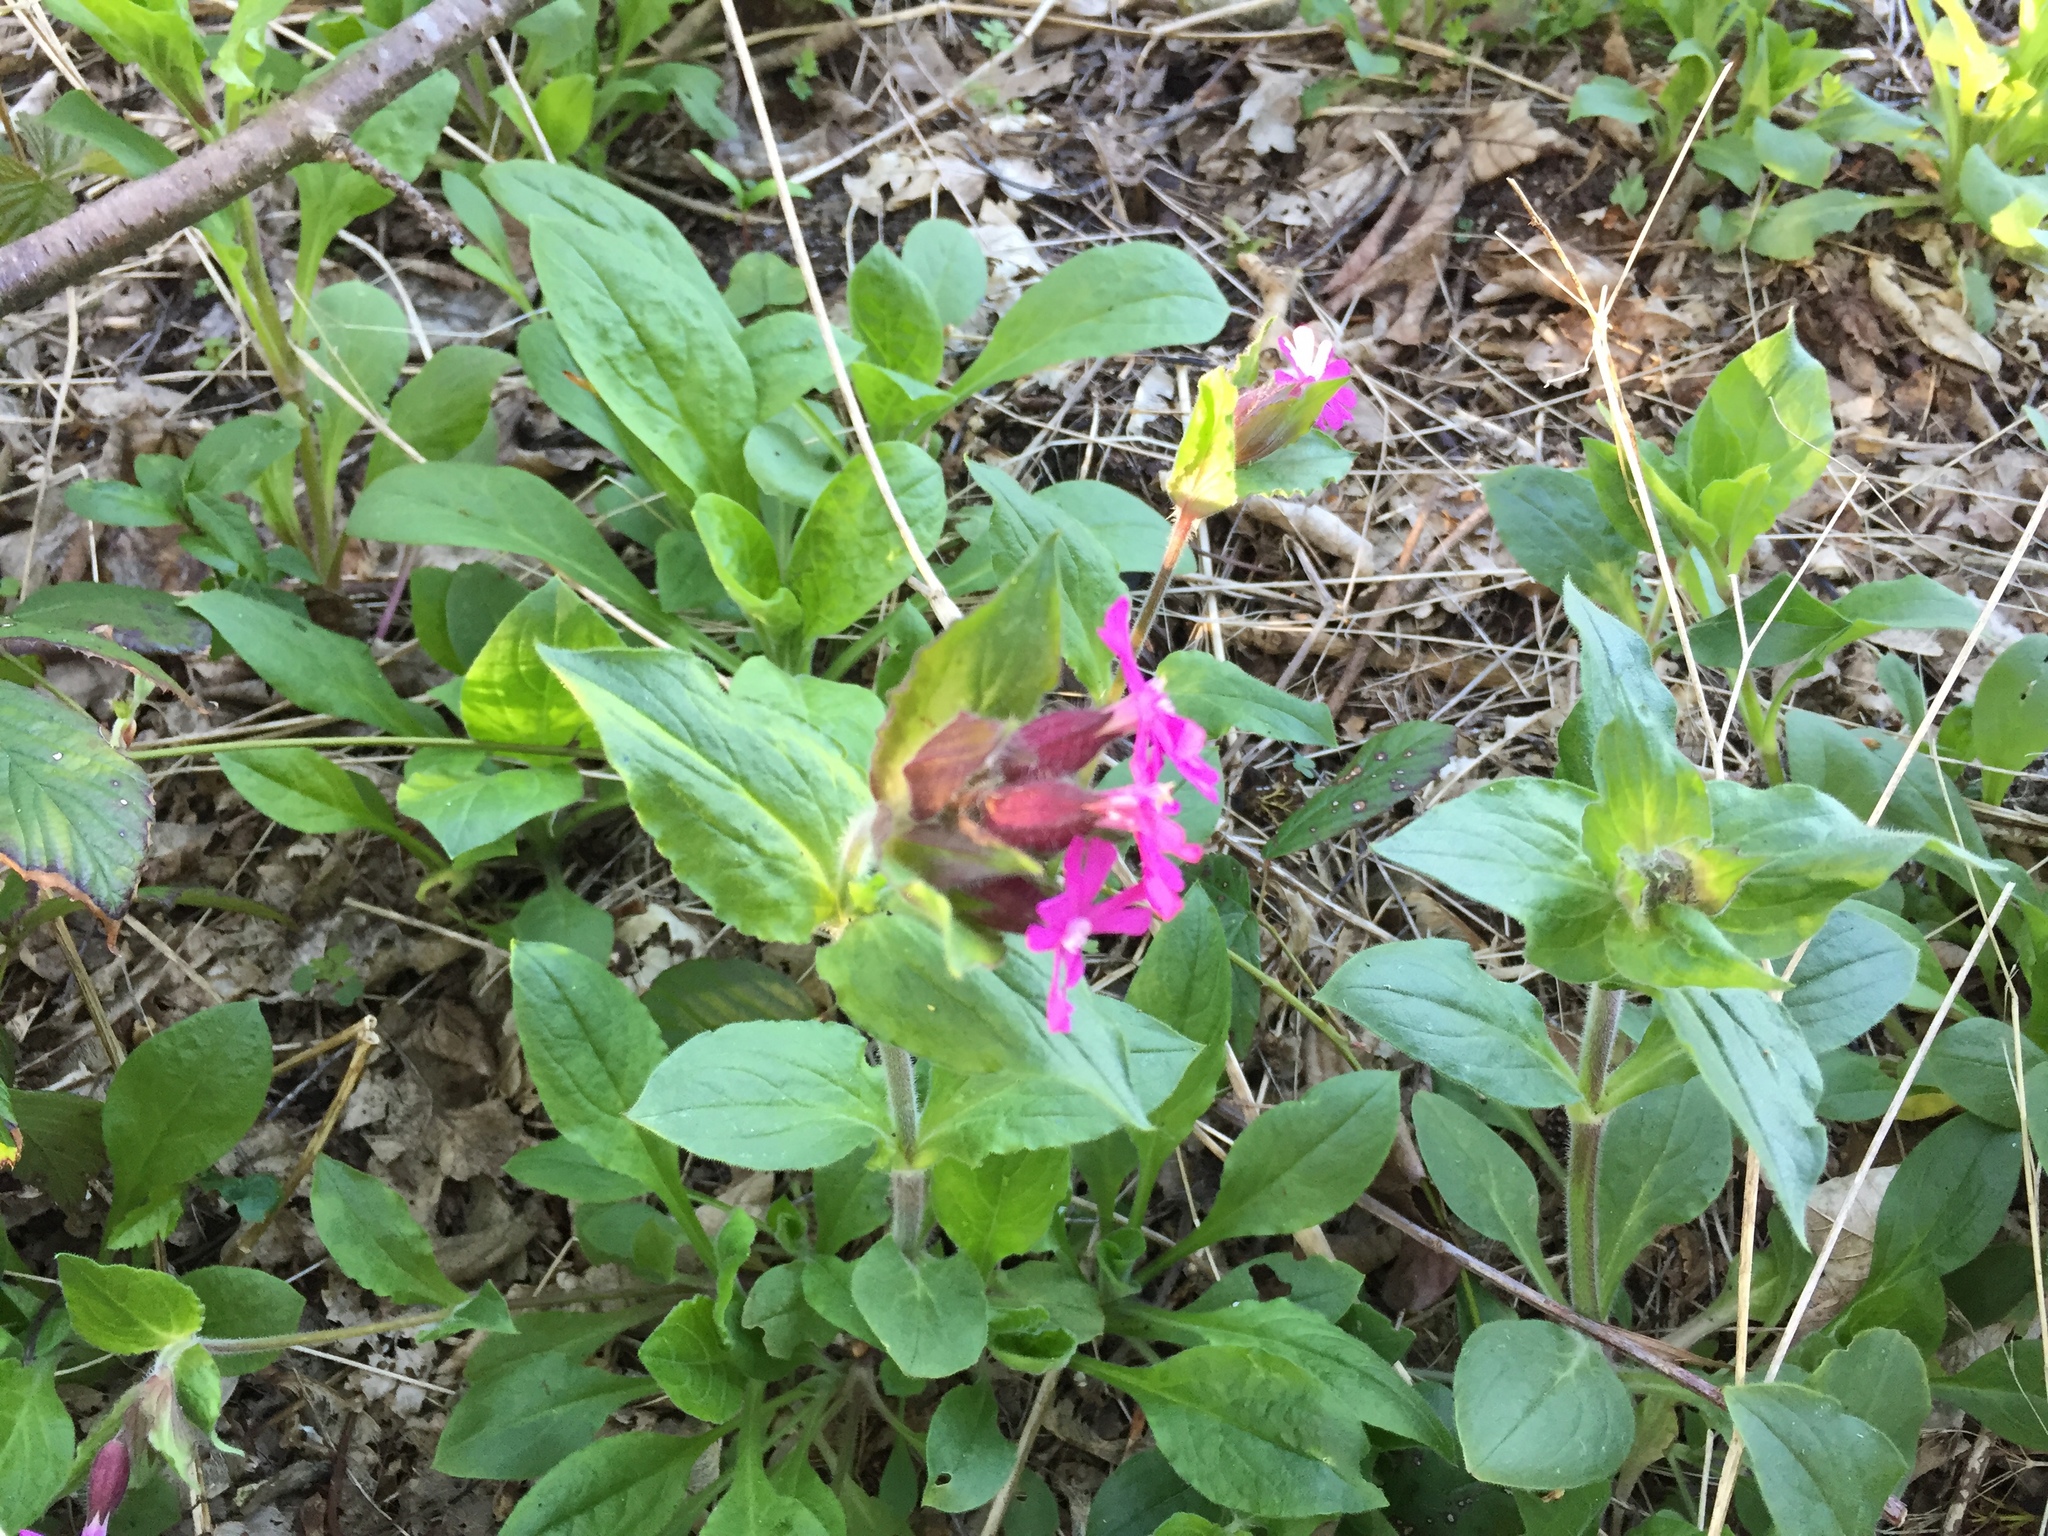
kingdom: Plantae
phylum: Tracheophyta
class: Magnoliopsida
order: Caryophyllales
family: Caryophyllaceae
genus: Silene
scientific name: Silene dioica
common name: Red campion
